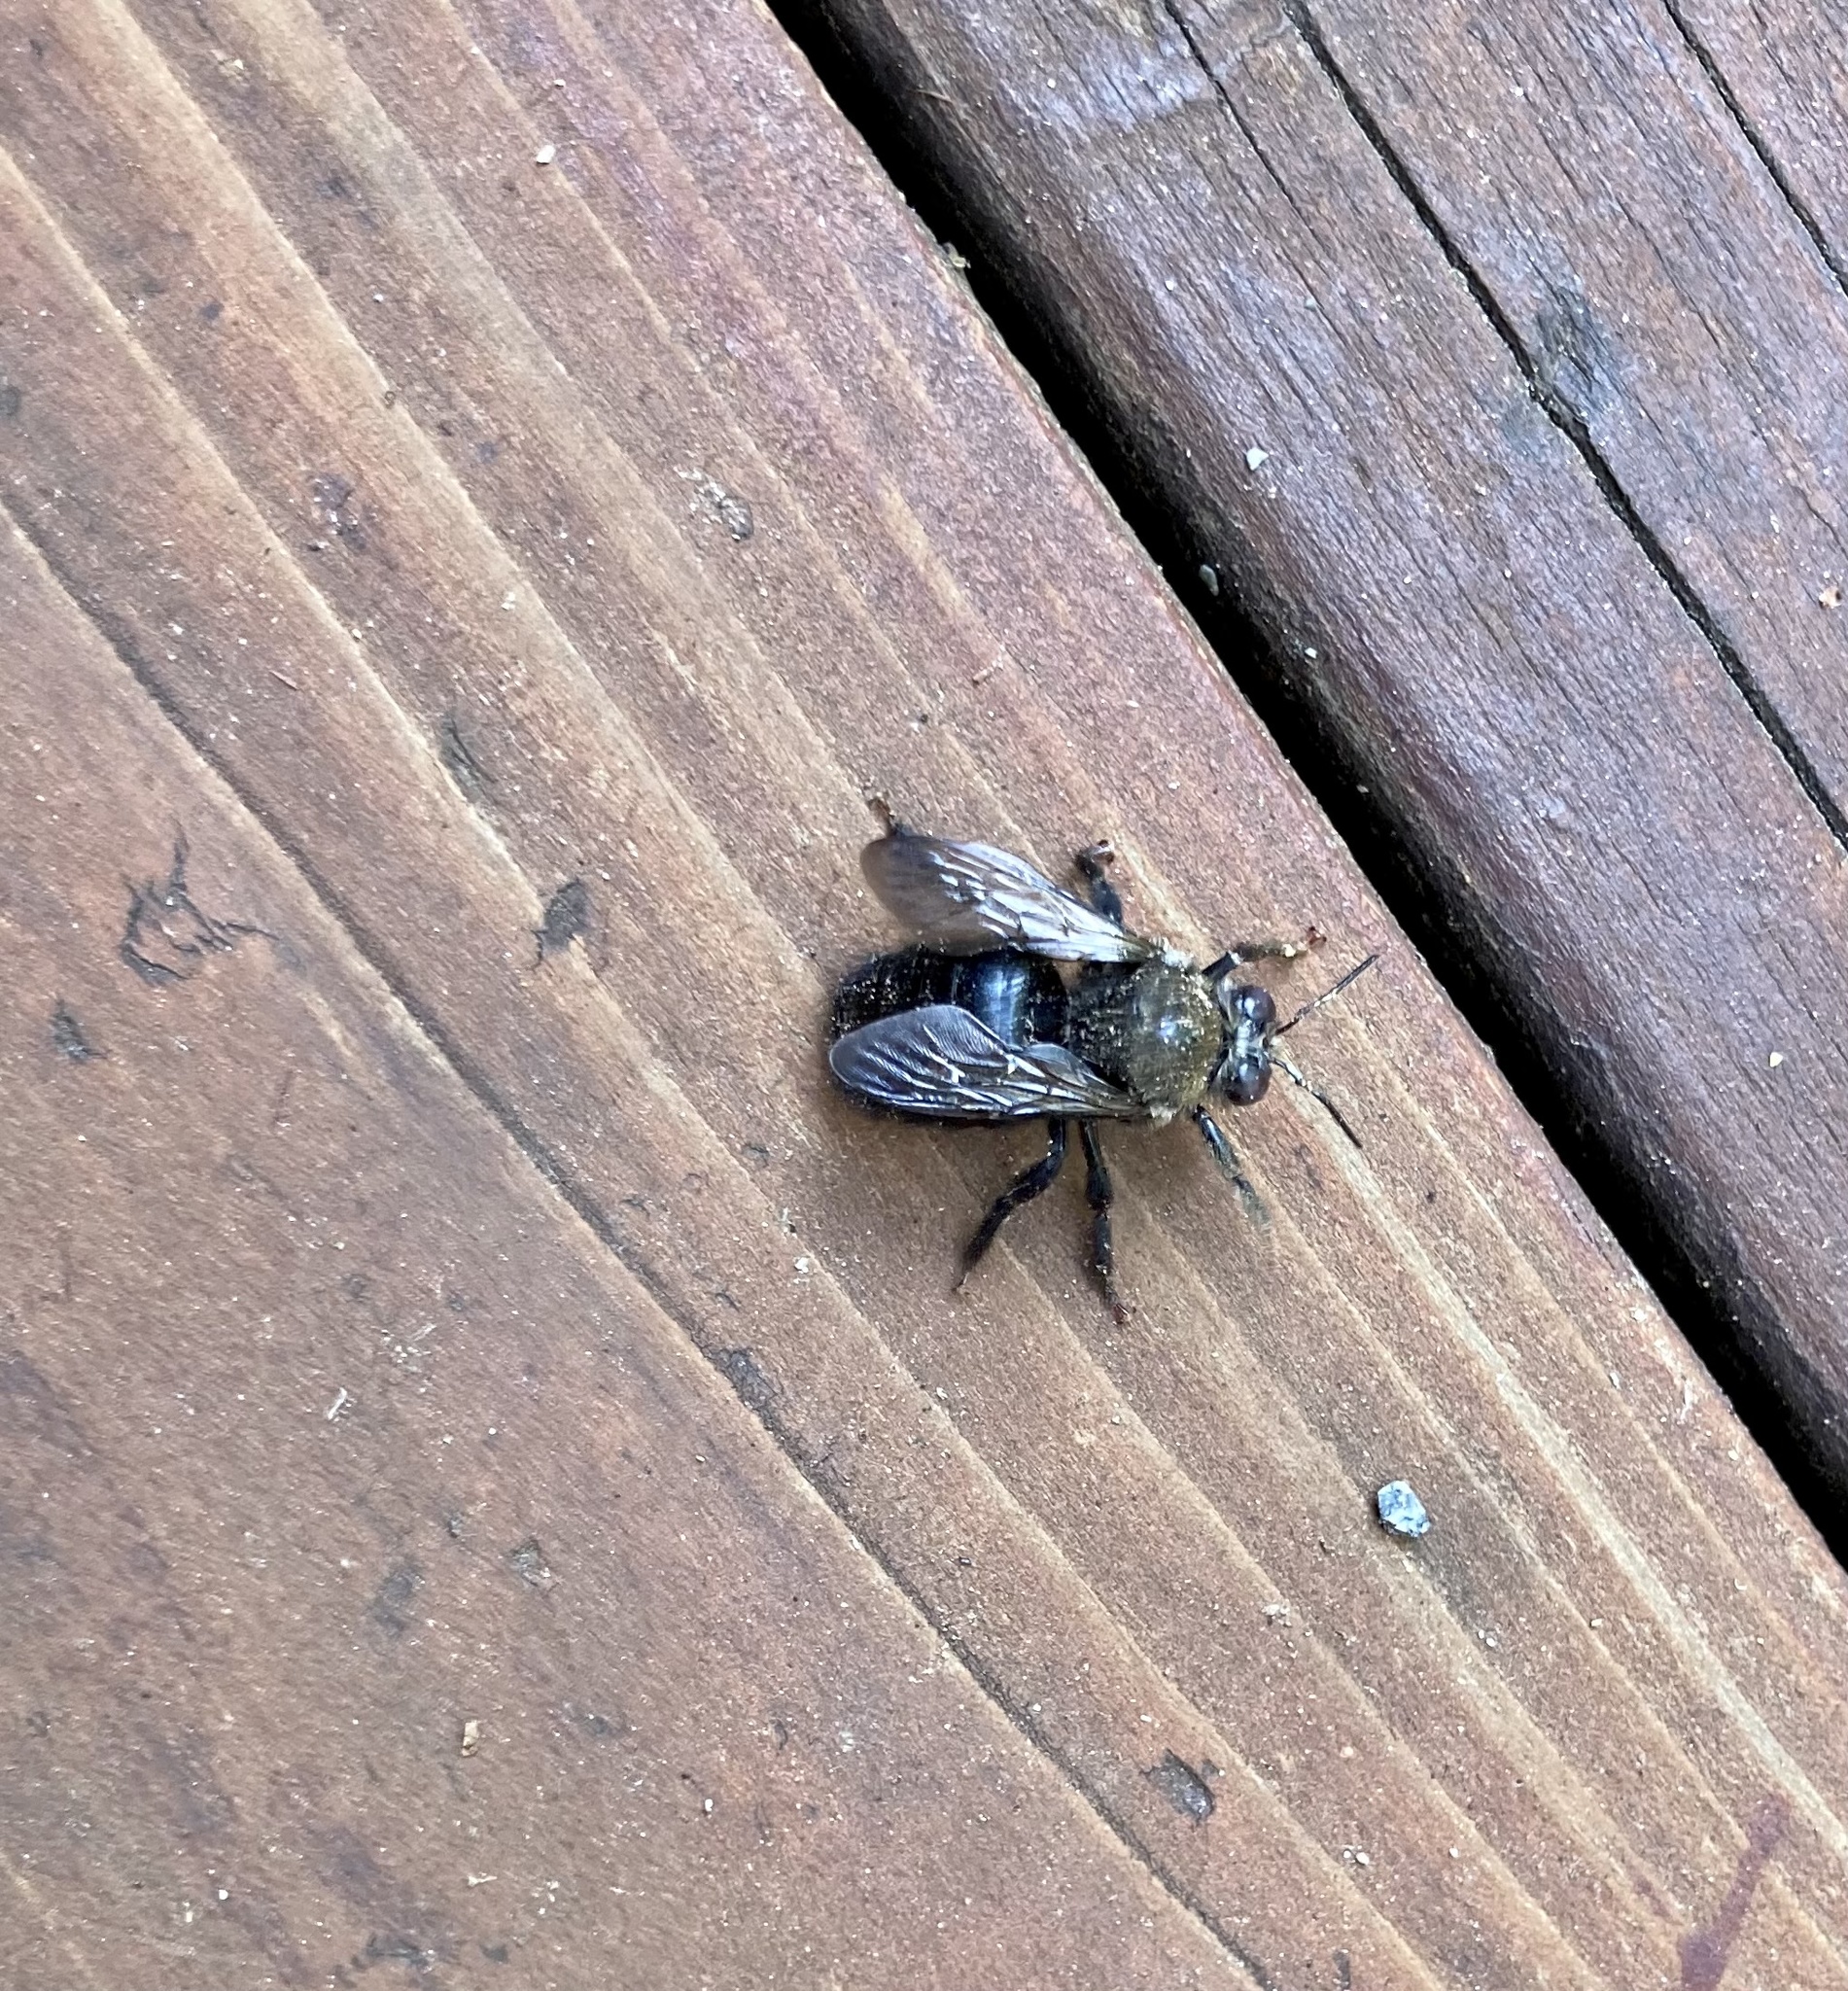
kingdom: Animalia
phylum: Arthropoda
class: Insecta
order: Hymenoptera
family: Apidae
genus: Xylocopa
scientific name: Xylocopa tabaniformis
